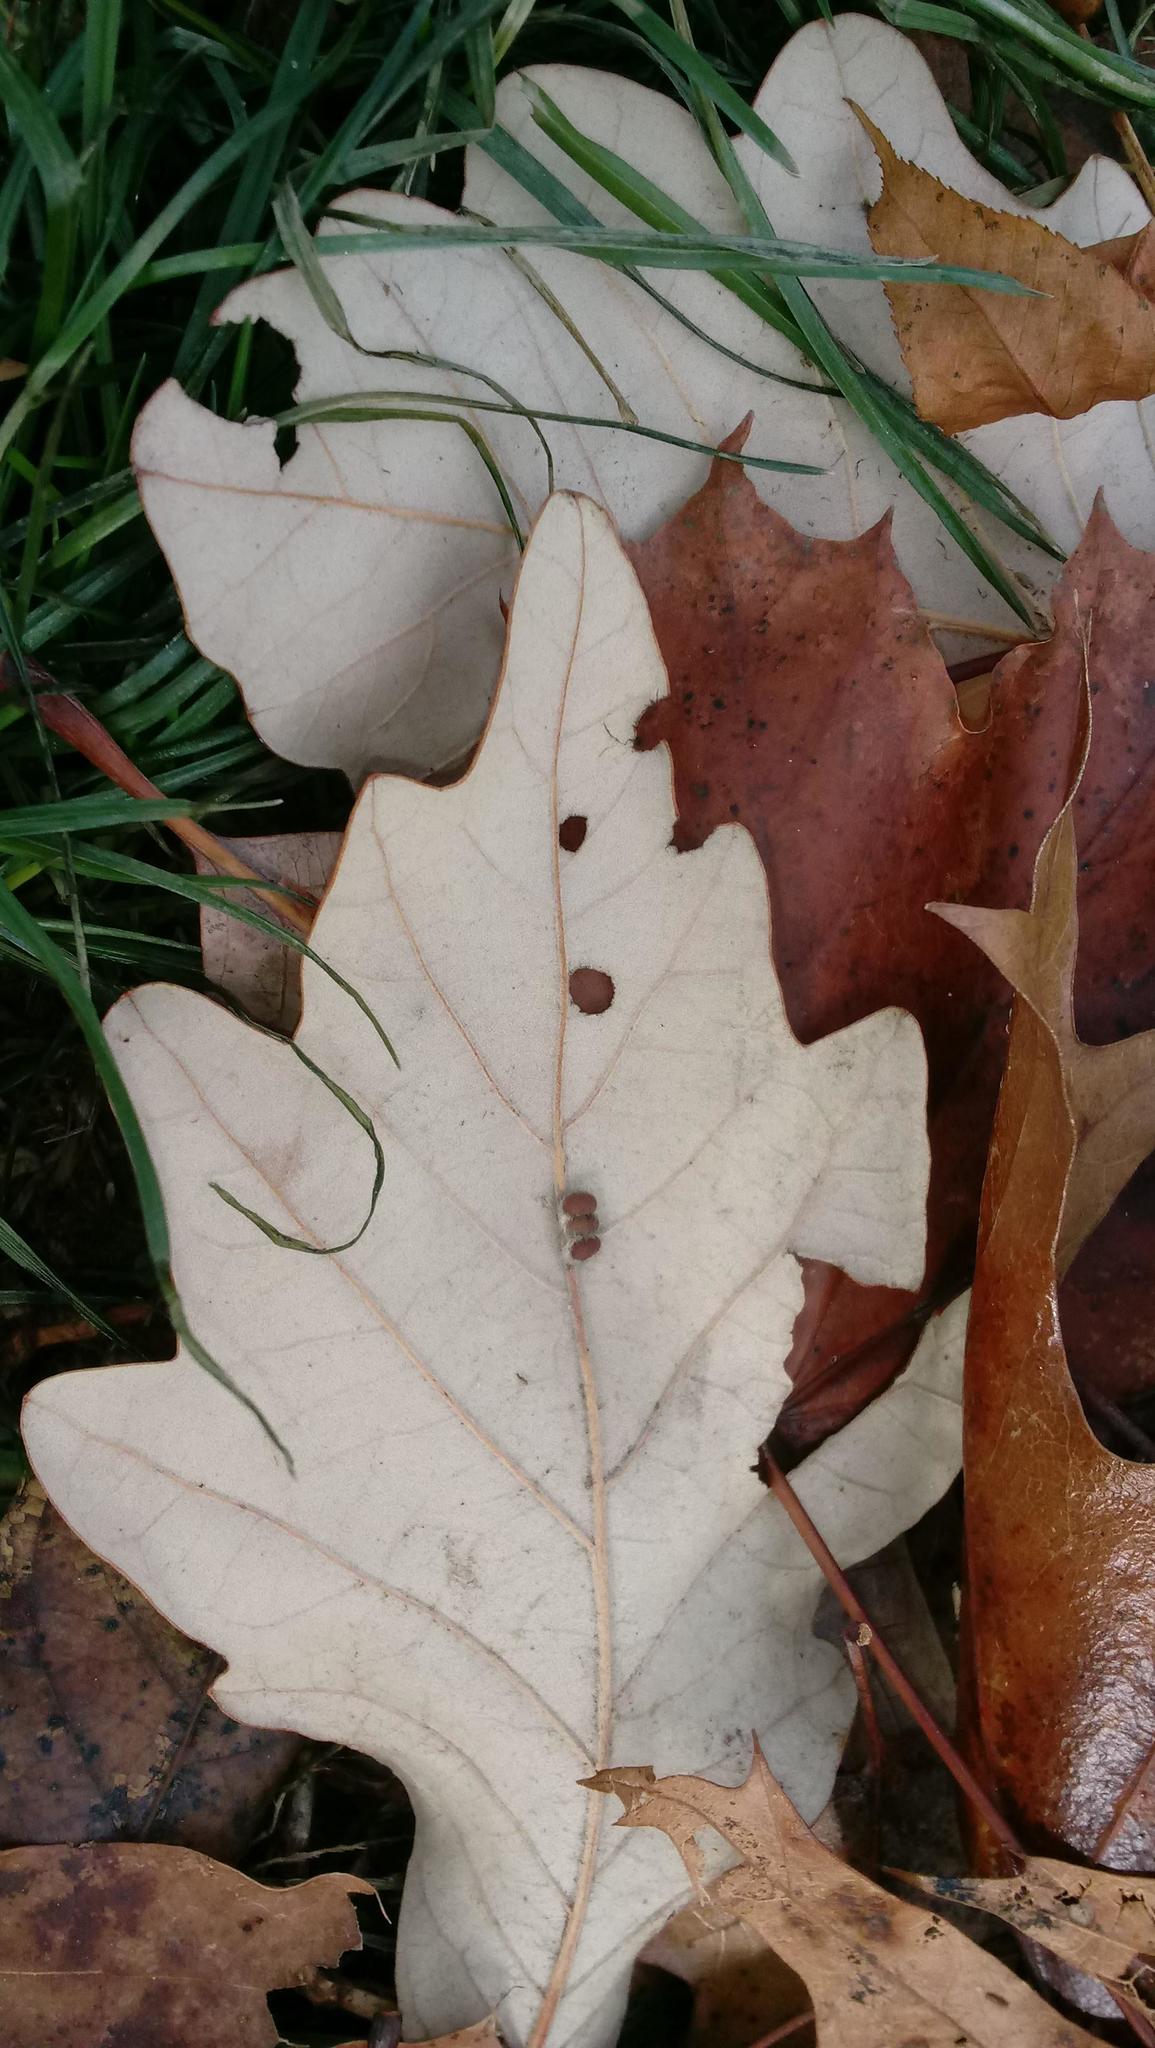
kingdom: Animalia
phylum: Arthropoda
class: Insecta
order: Hymenoptera
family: Cynipidae
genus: Andricus
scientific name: Andricus Druon ignotum
